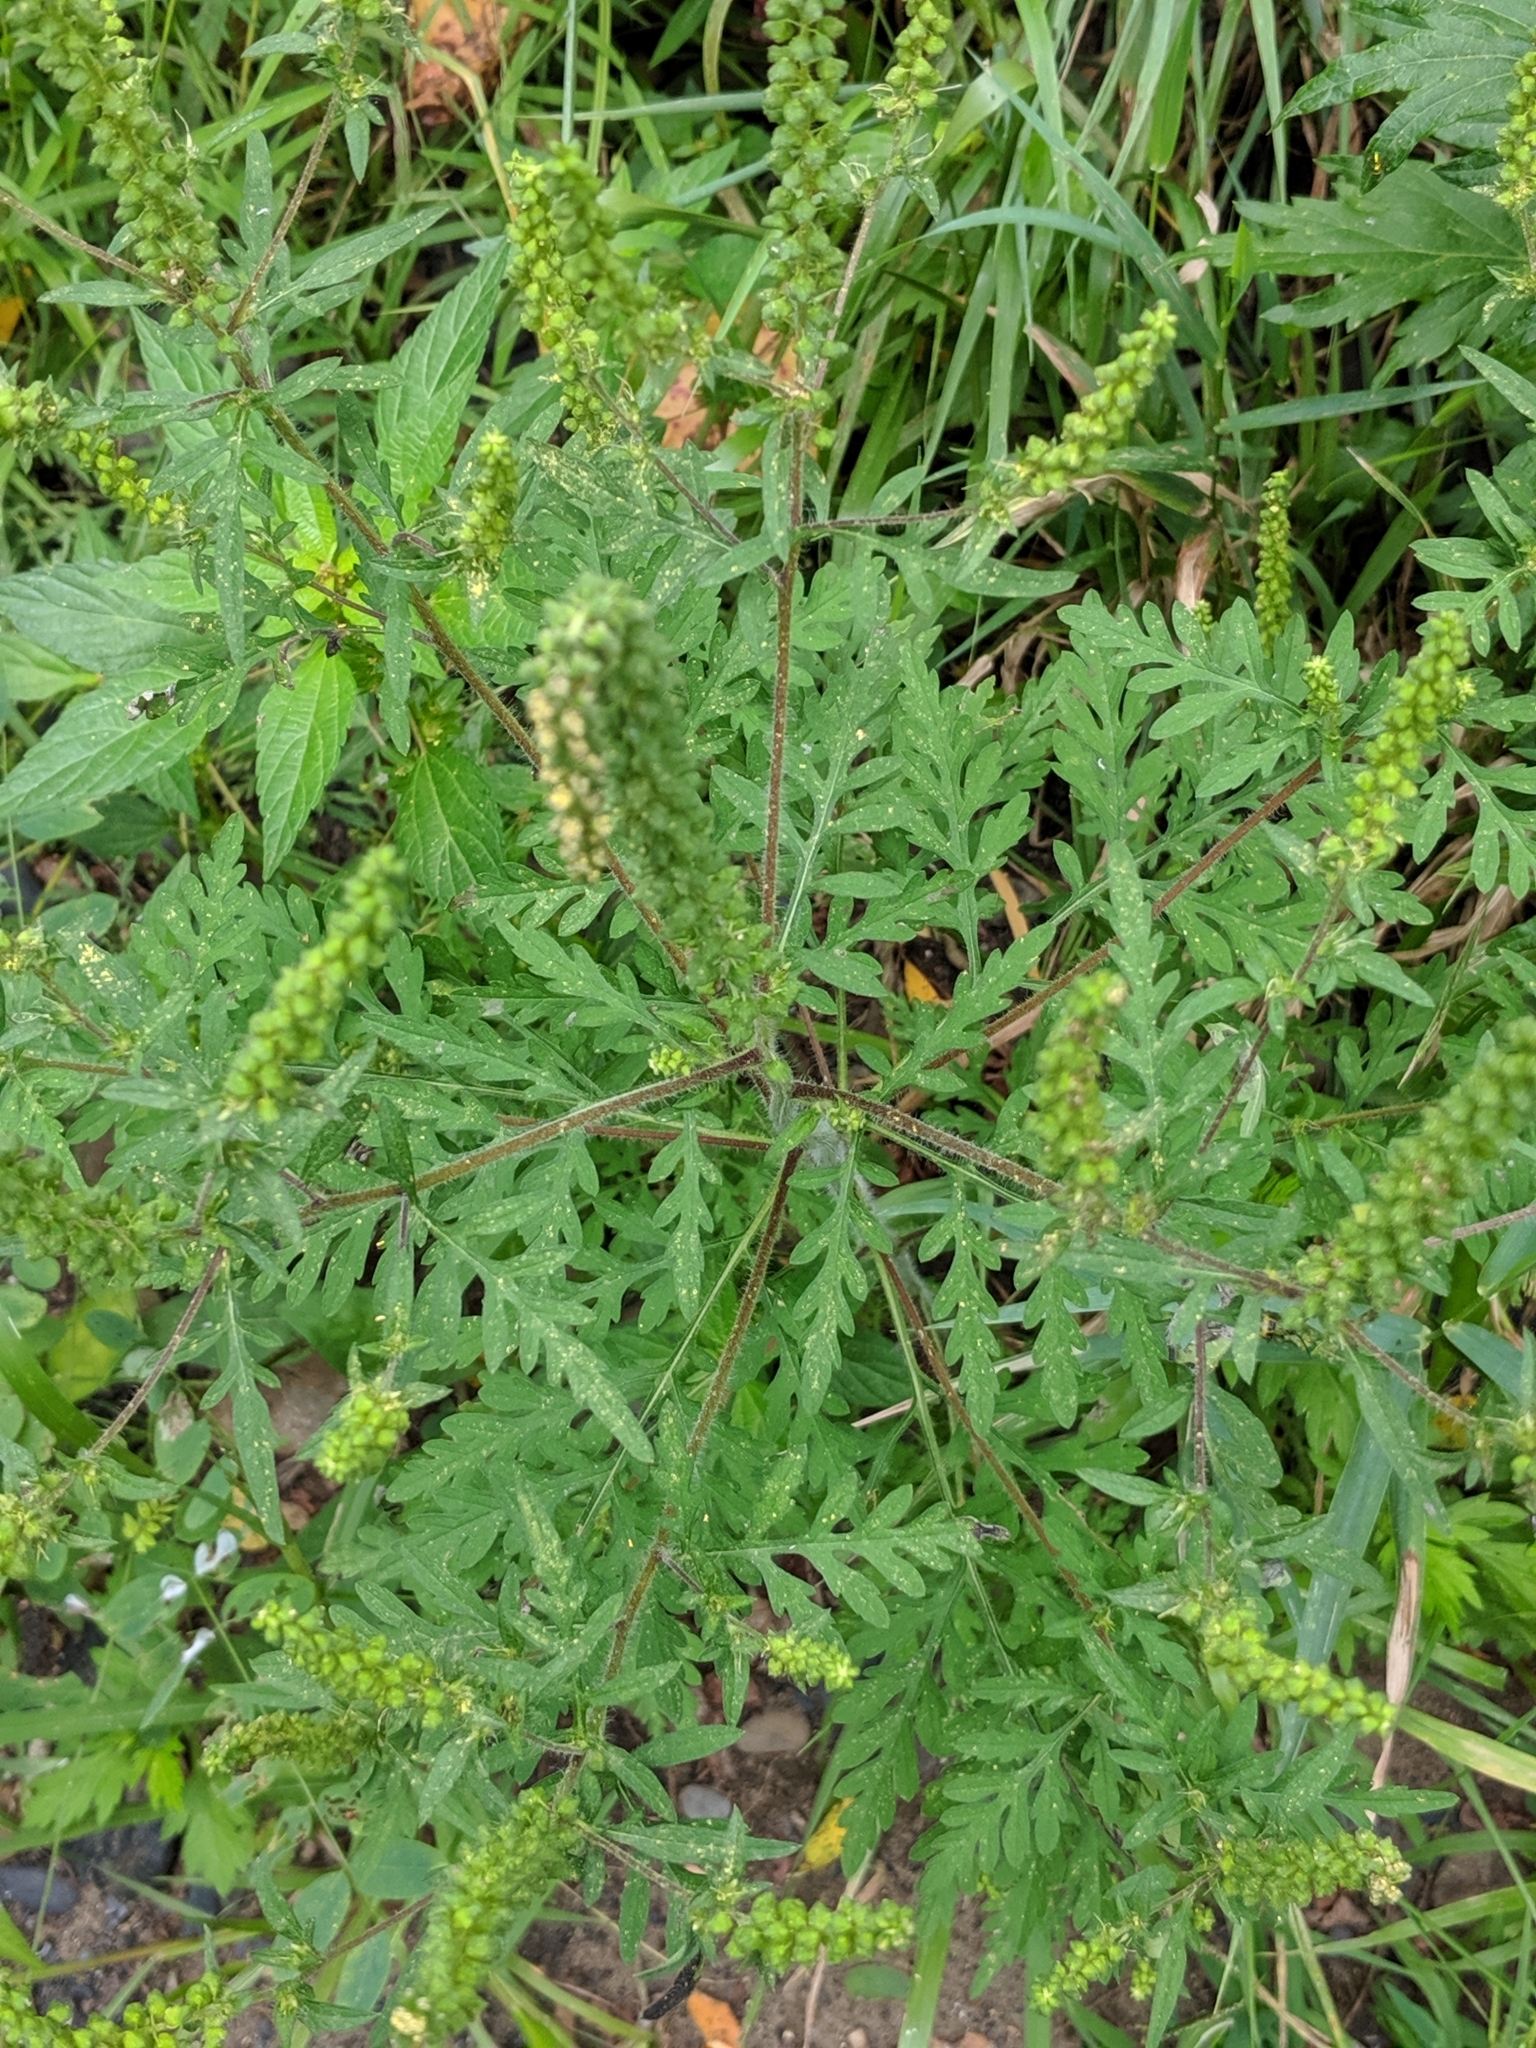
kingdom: Plantae
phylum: Tracheophyta
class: Magnoliopsida
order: Asterales
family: Asteraceae
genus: Ambrosia
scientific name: Ambrosia artemisiifolia
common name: Annual ragweed
